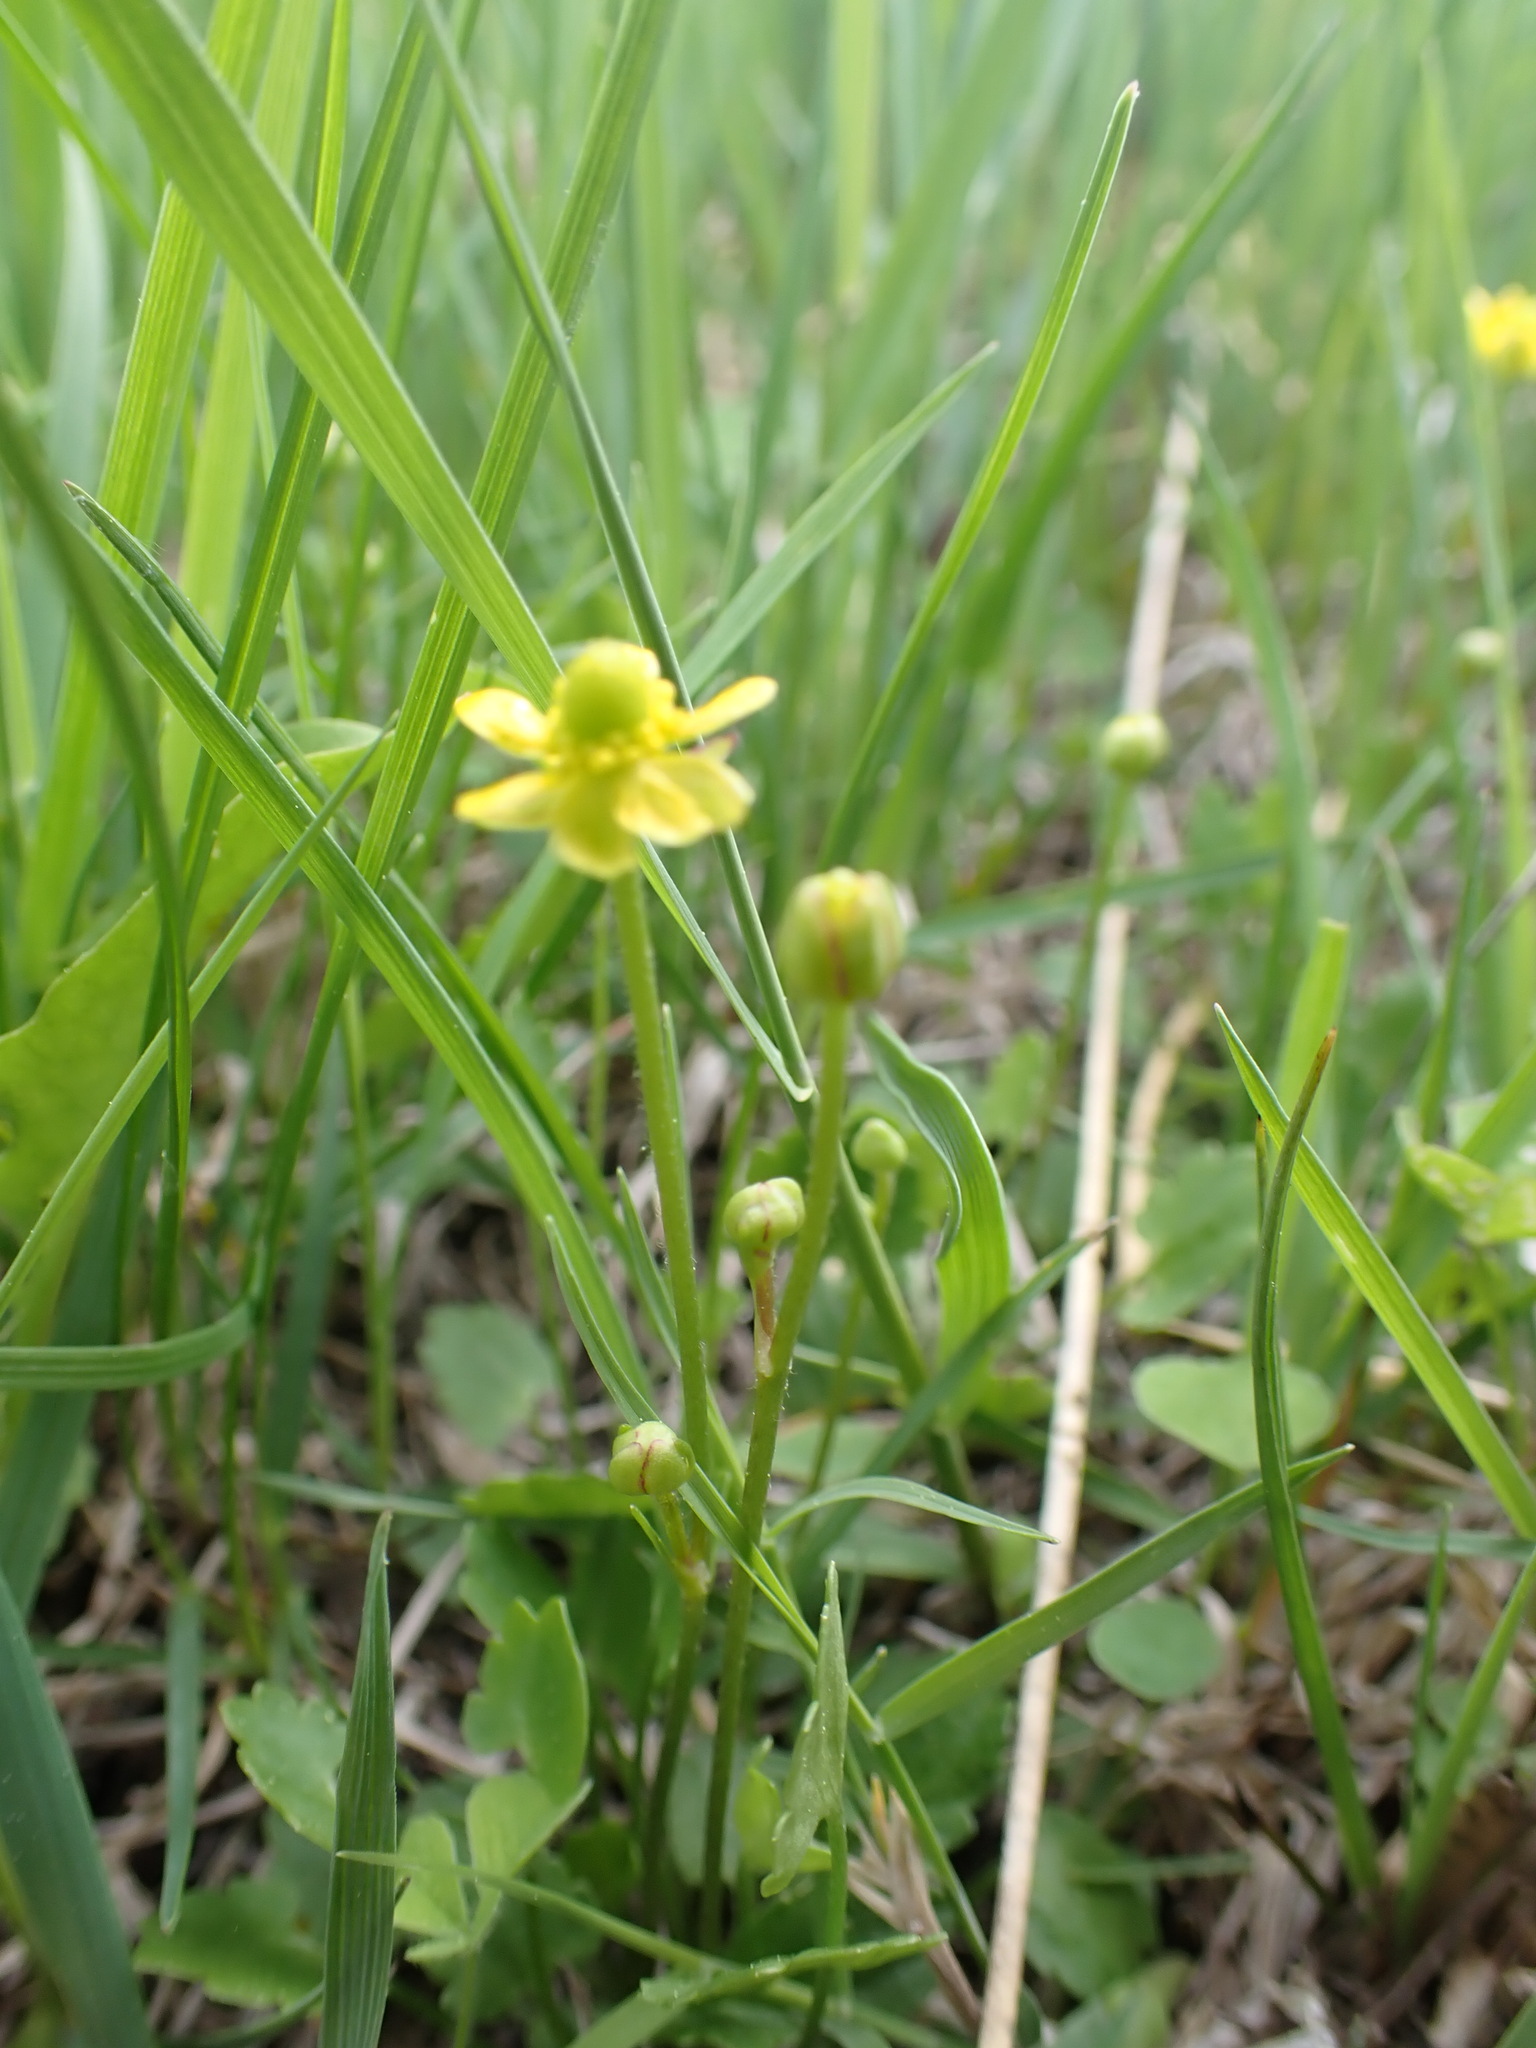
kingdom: Plantae
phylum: Tracheophyta
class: Magnoliopsida
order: Ranunculales
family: Ranunculaceae
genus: Halerpestes
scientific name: Halerpestes cymbalaria
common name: Seaside crowfoot
